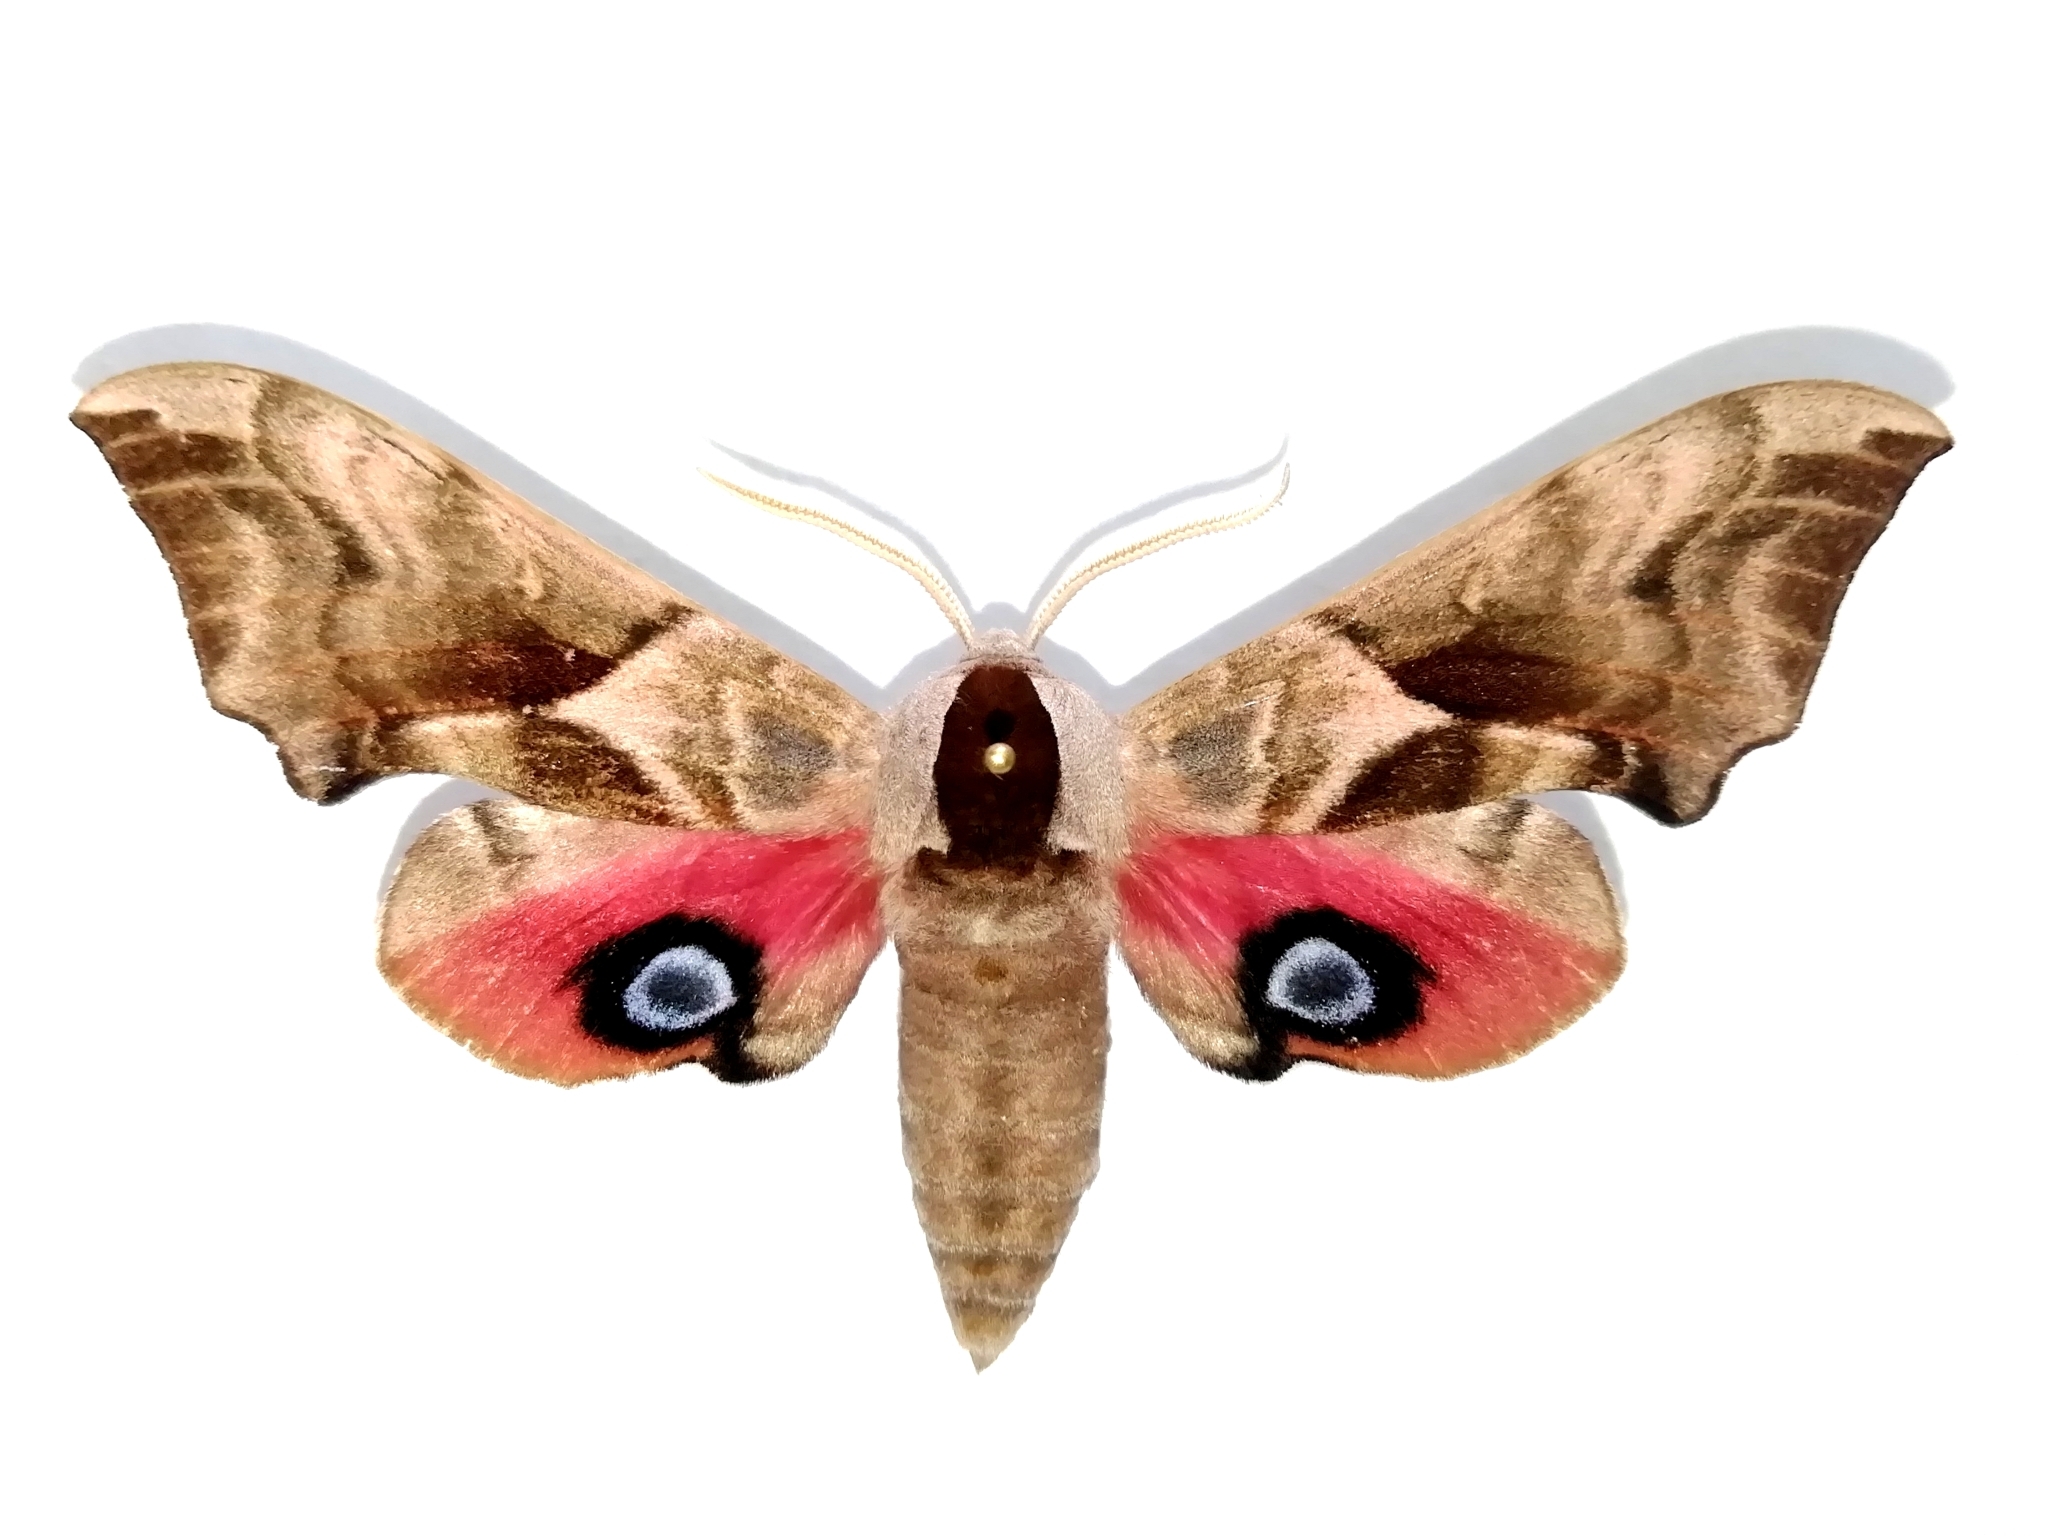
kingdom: Animalia
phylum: Arthropoda
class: Insecta
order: Lepidoptera
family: Sphingidae
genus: Smerinthus
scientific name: Smerinthus ocellata
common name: Eyed hawk-moth
